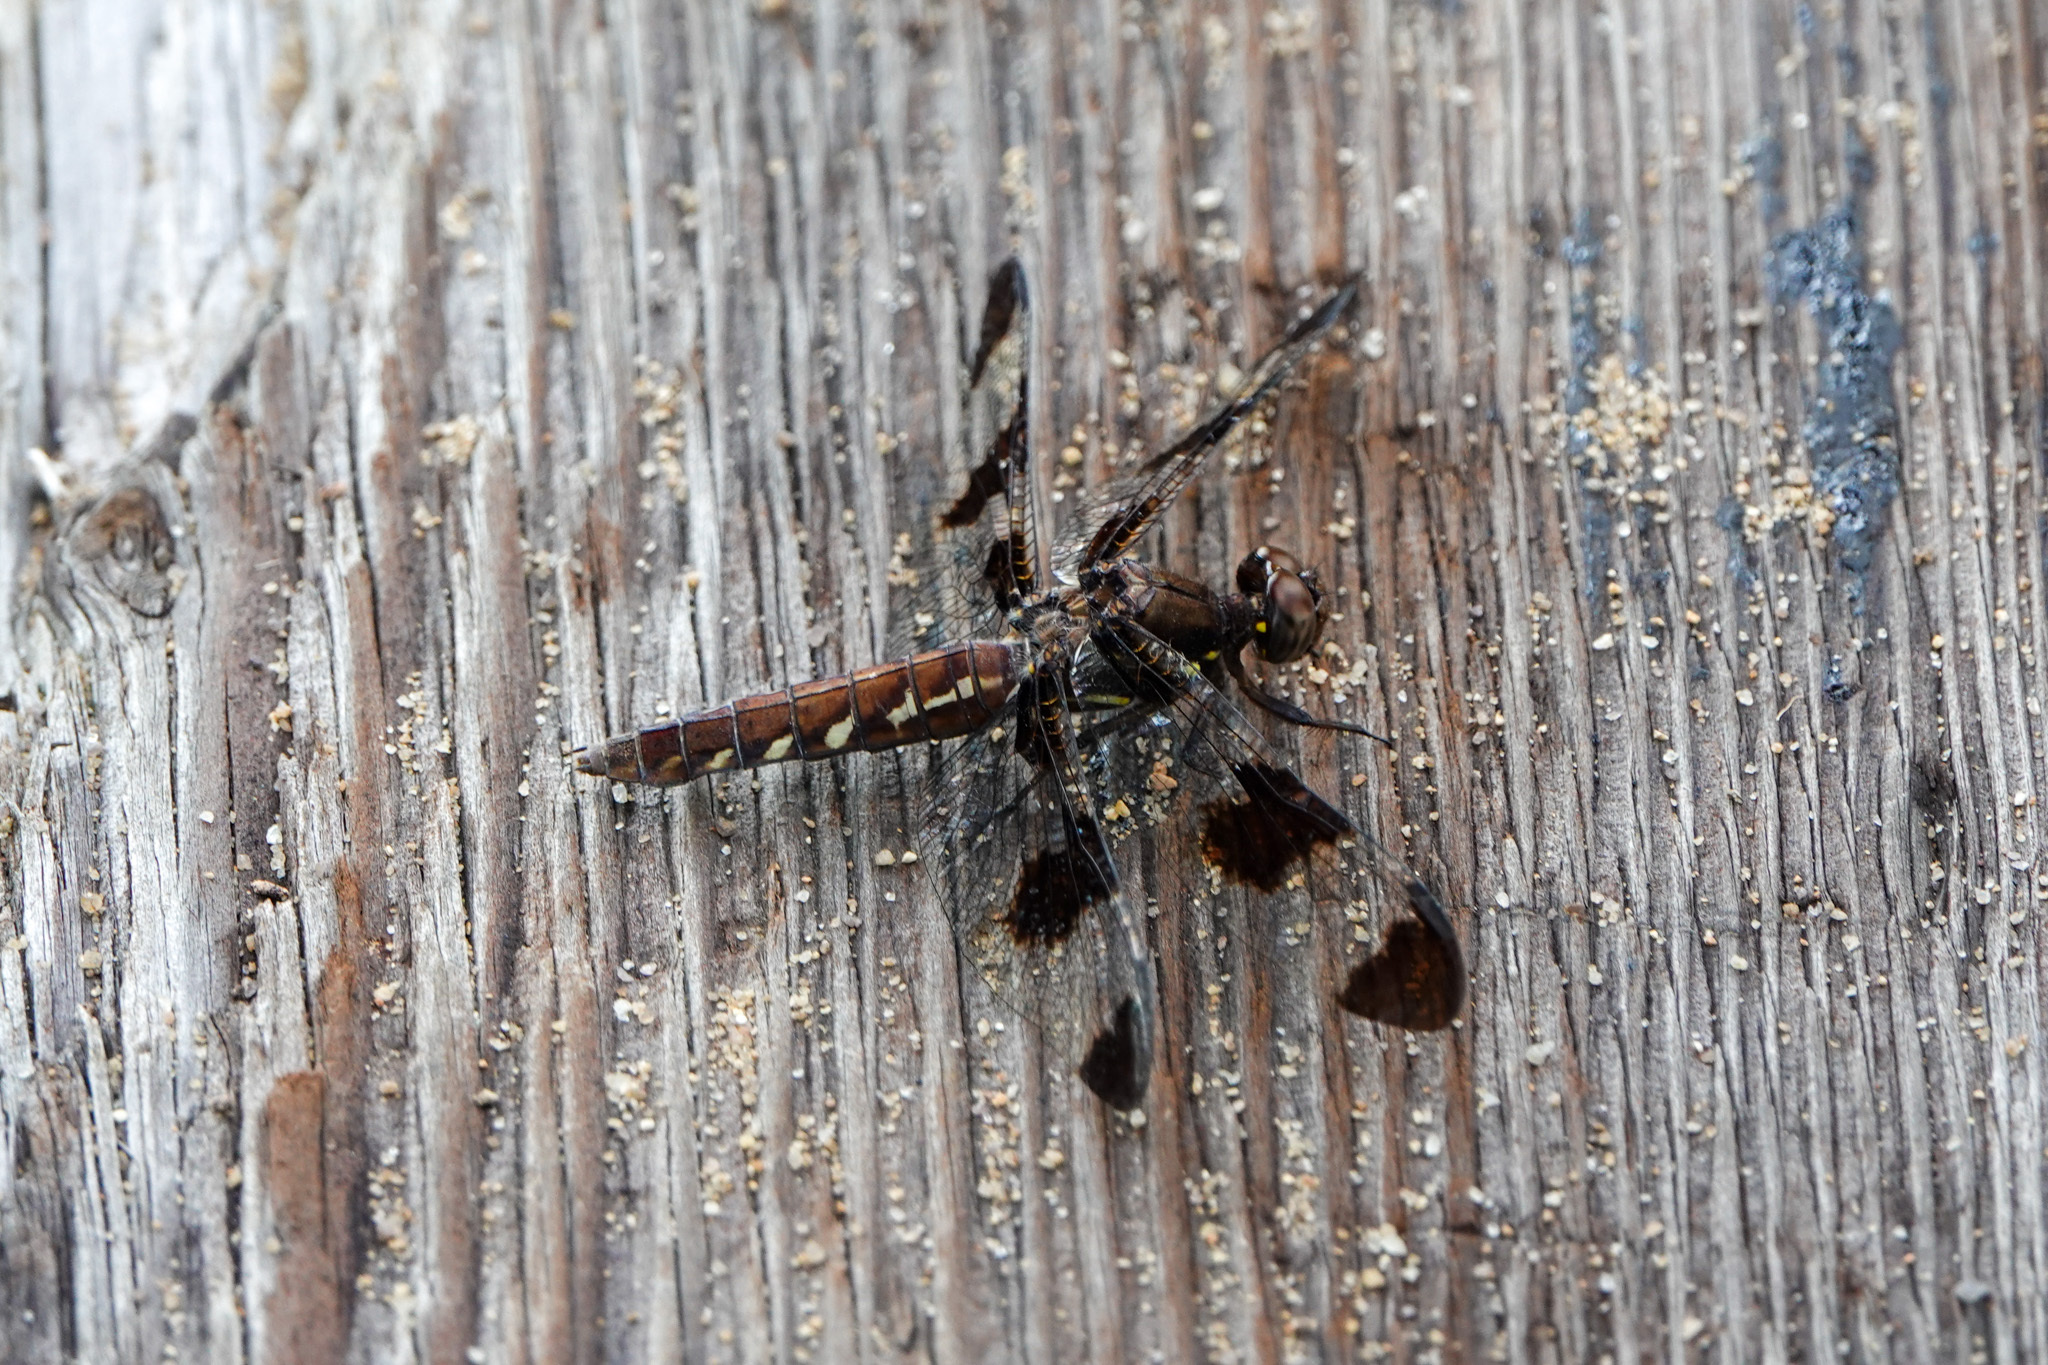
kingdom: Animalia
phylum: Arthropoda
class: Insecta
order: Odonata
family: Libellulidae
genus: Plathemis
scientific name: Plathemis lydia
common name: Common whitetail
